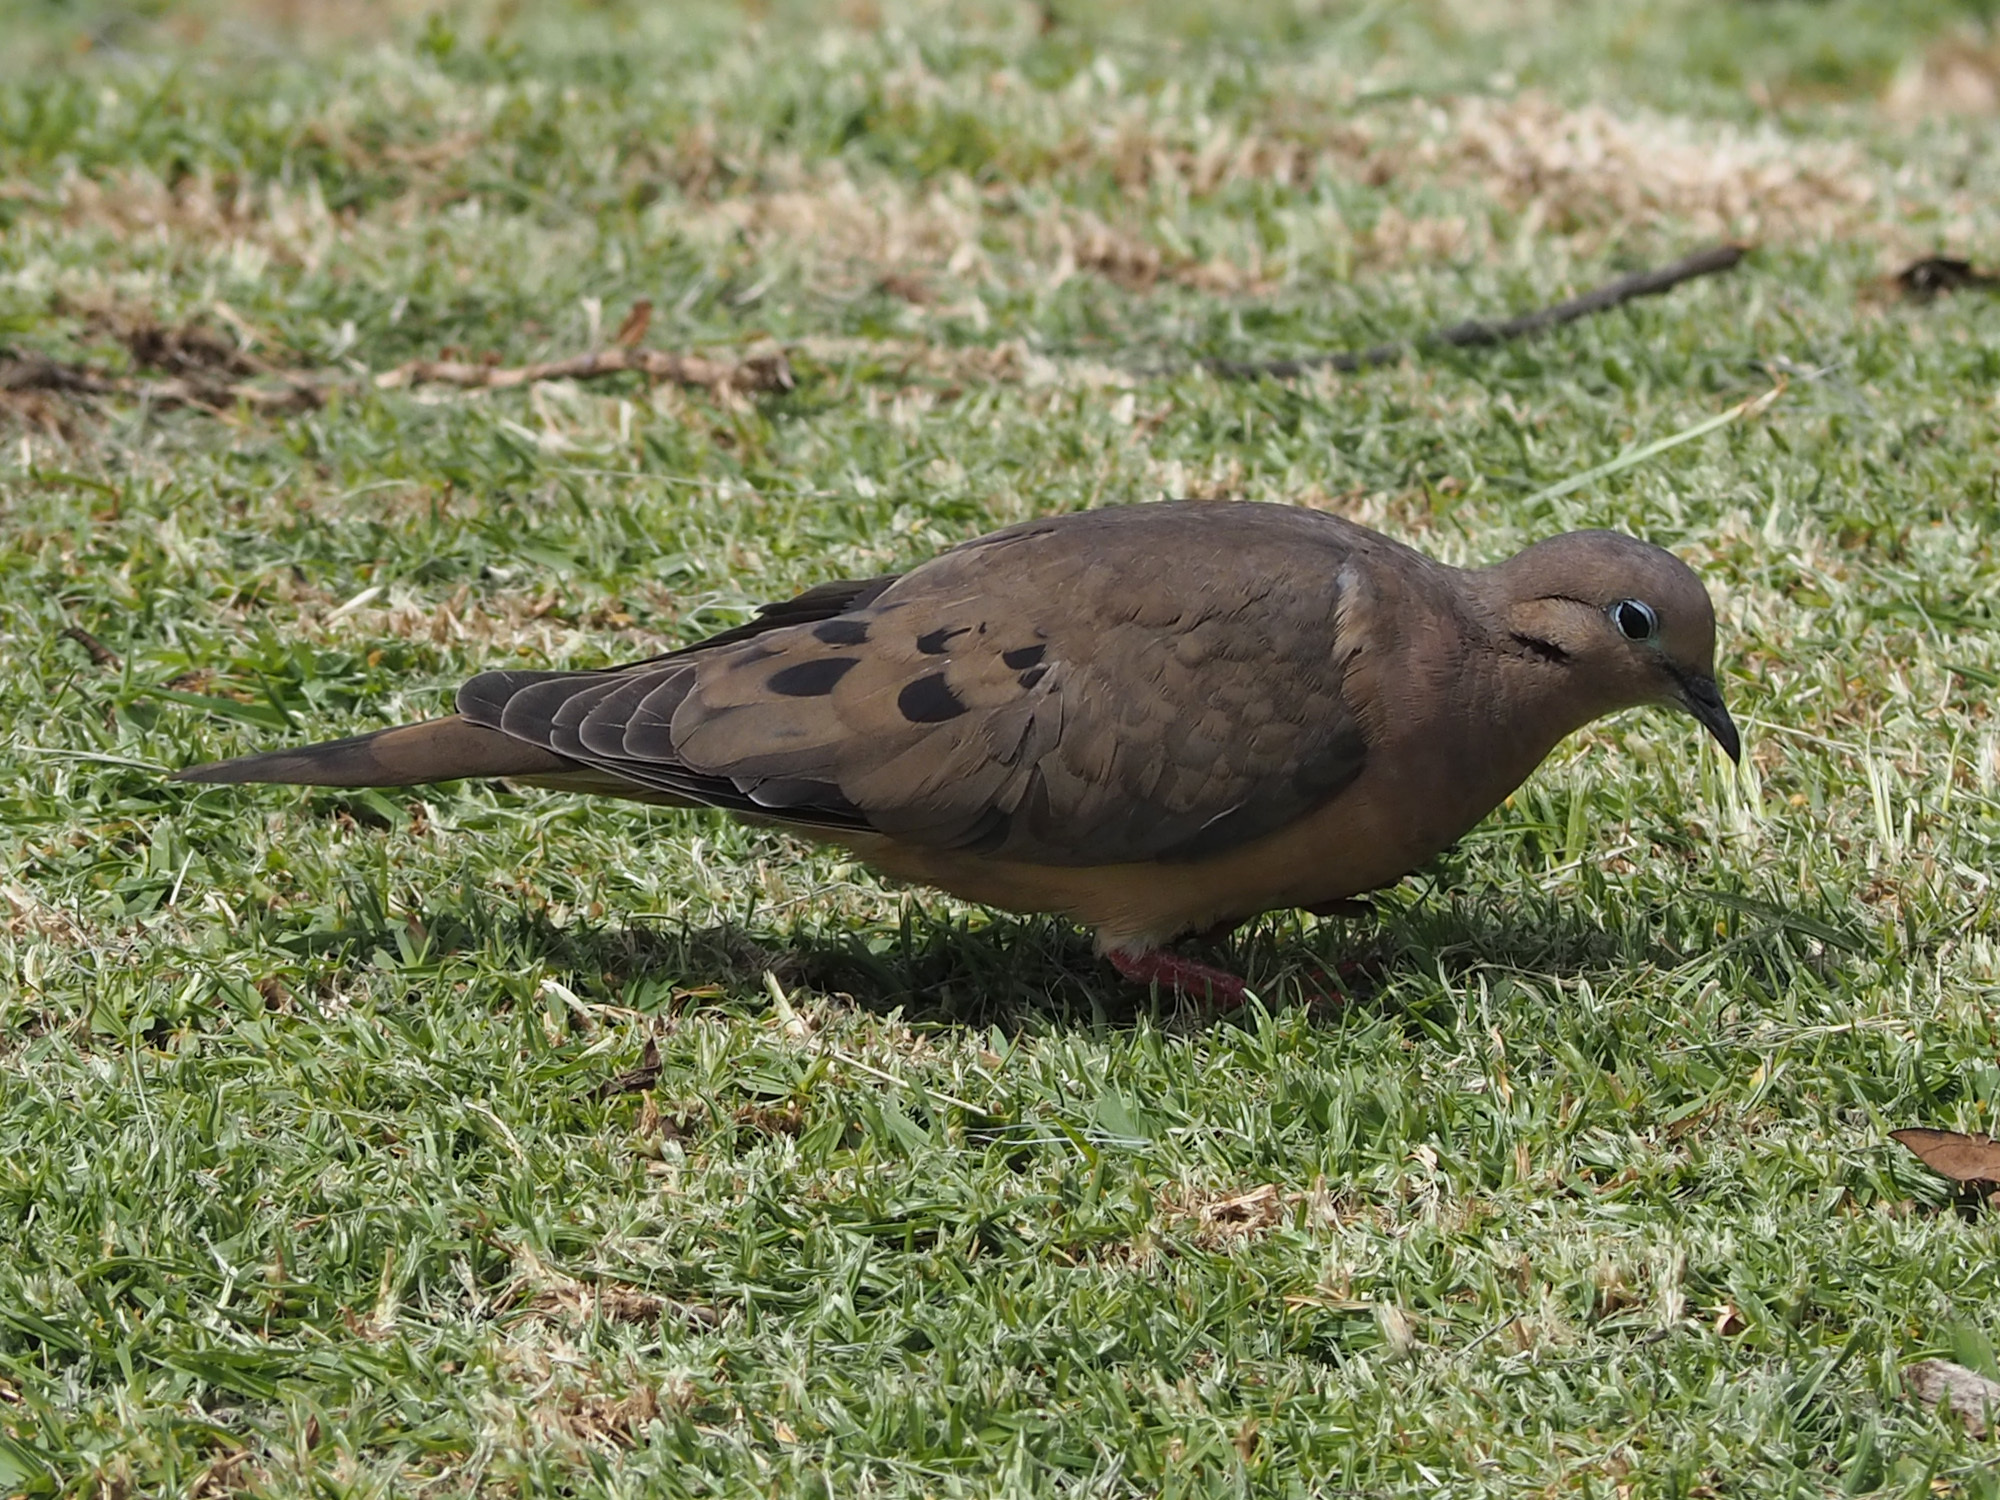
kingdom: Animalia
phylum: Chordata
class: Aves
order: Columbiformes
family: Columbidae
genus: Zenaida
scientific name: Zenaida auriculata
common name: Eared dove
